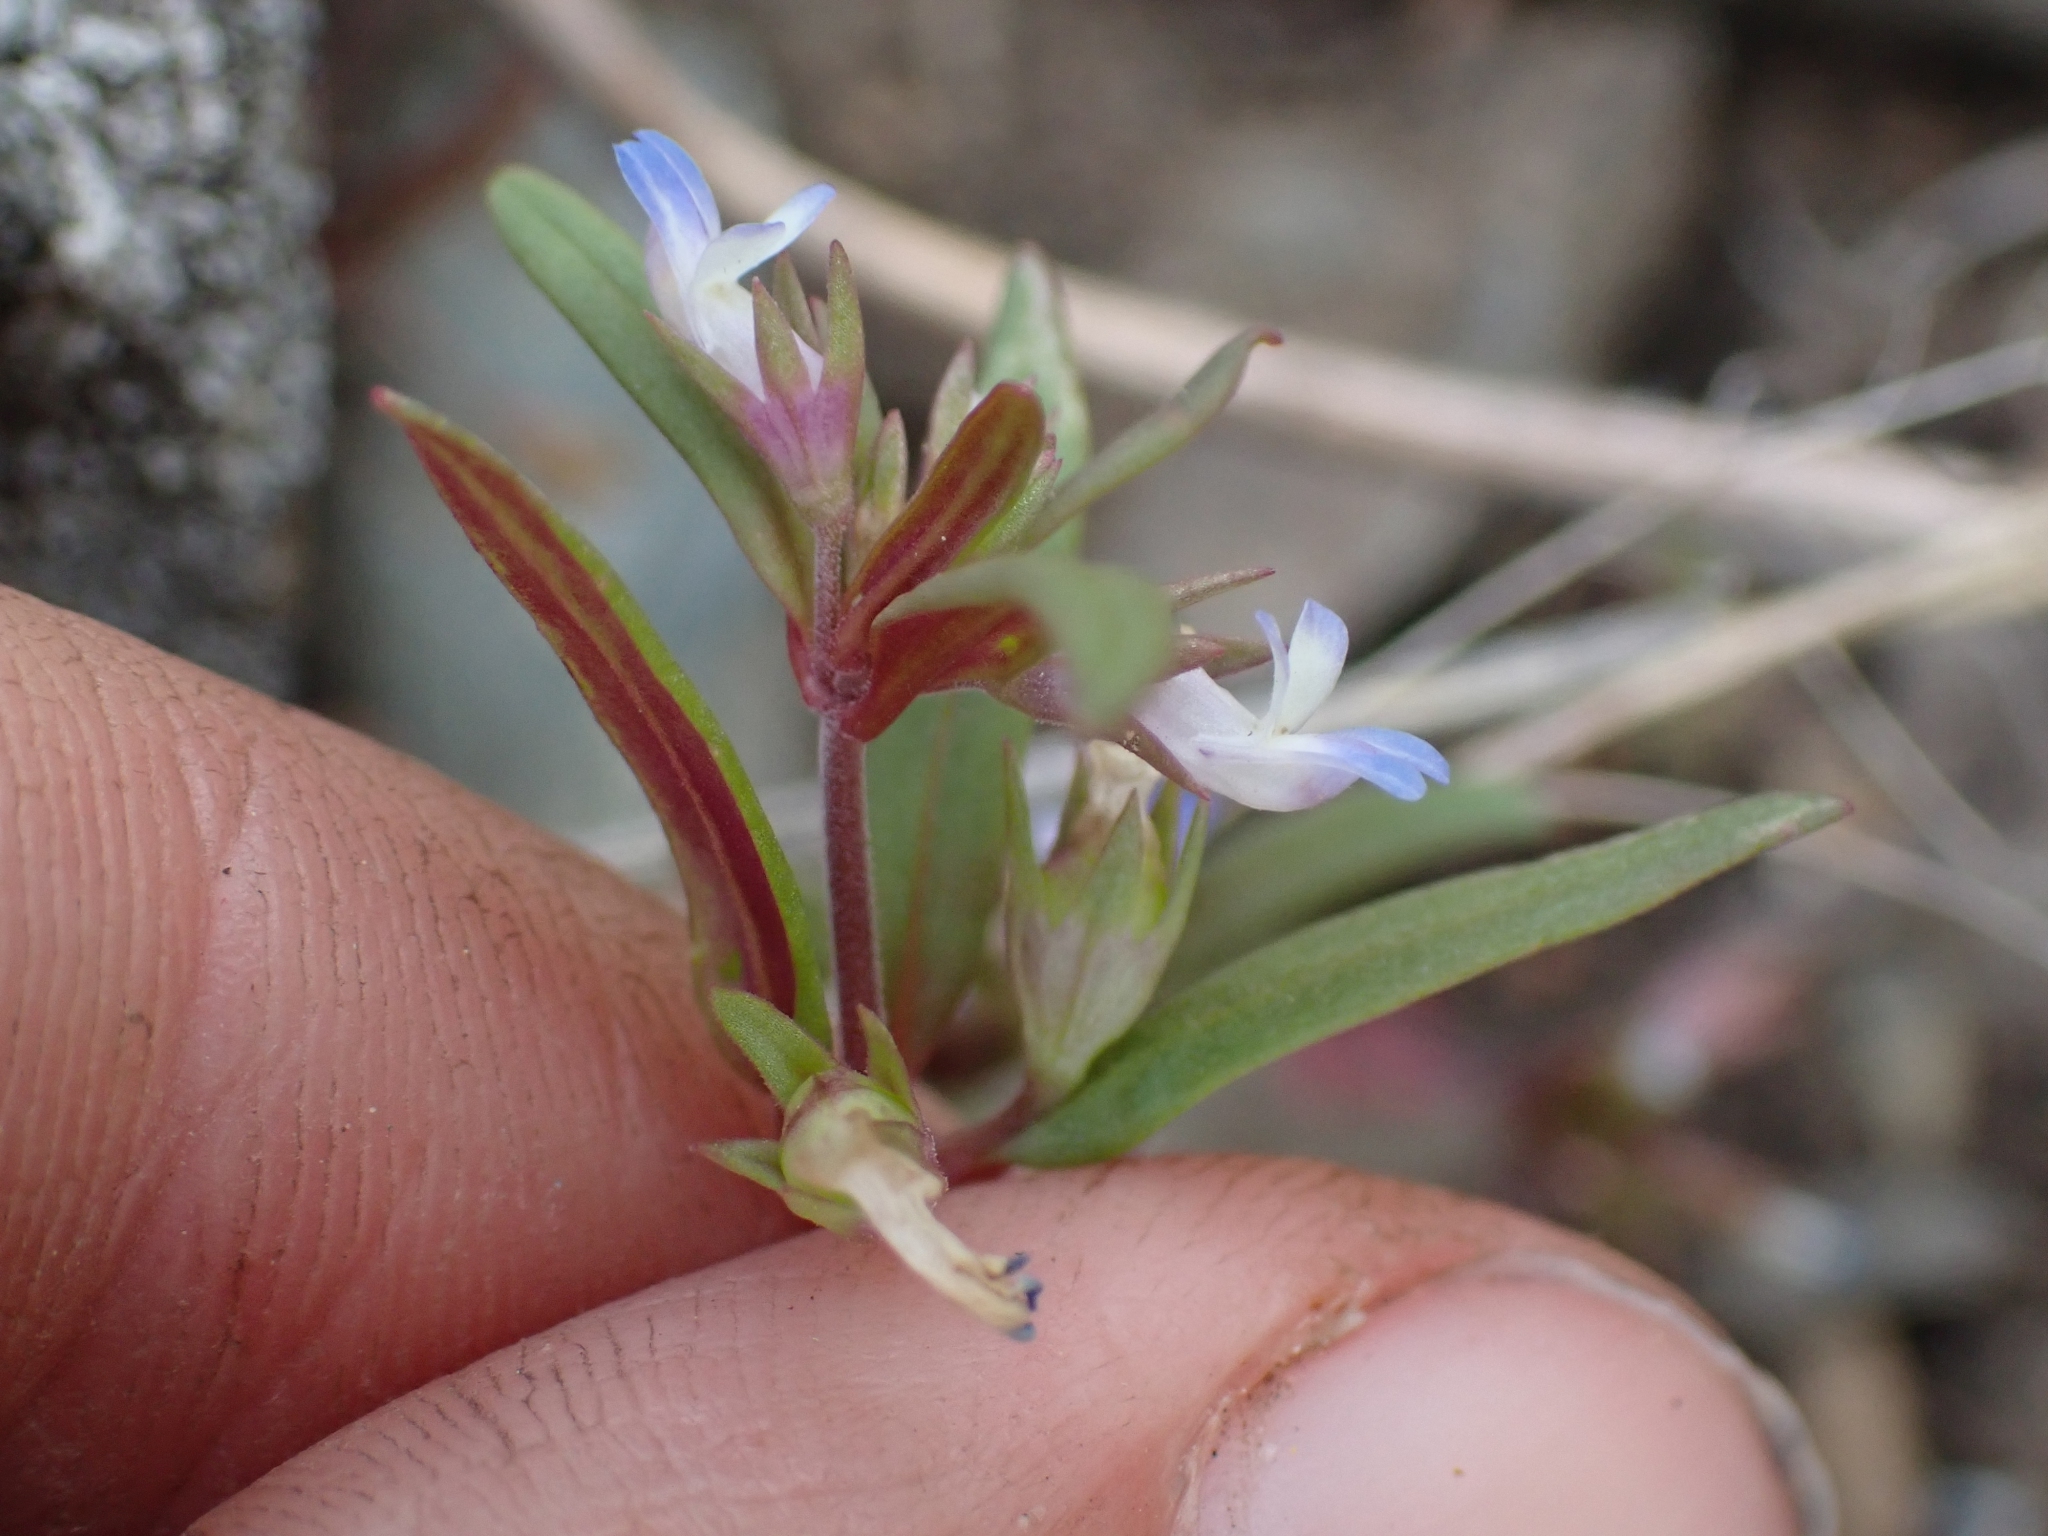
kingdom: Plantae
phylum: Tracheophyta
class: Magnoliopsida
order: Lamiales
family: Plantaginaceae
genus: Collinsia
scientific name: Collinsia parviflora
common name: Blue-lips
